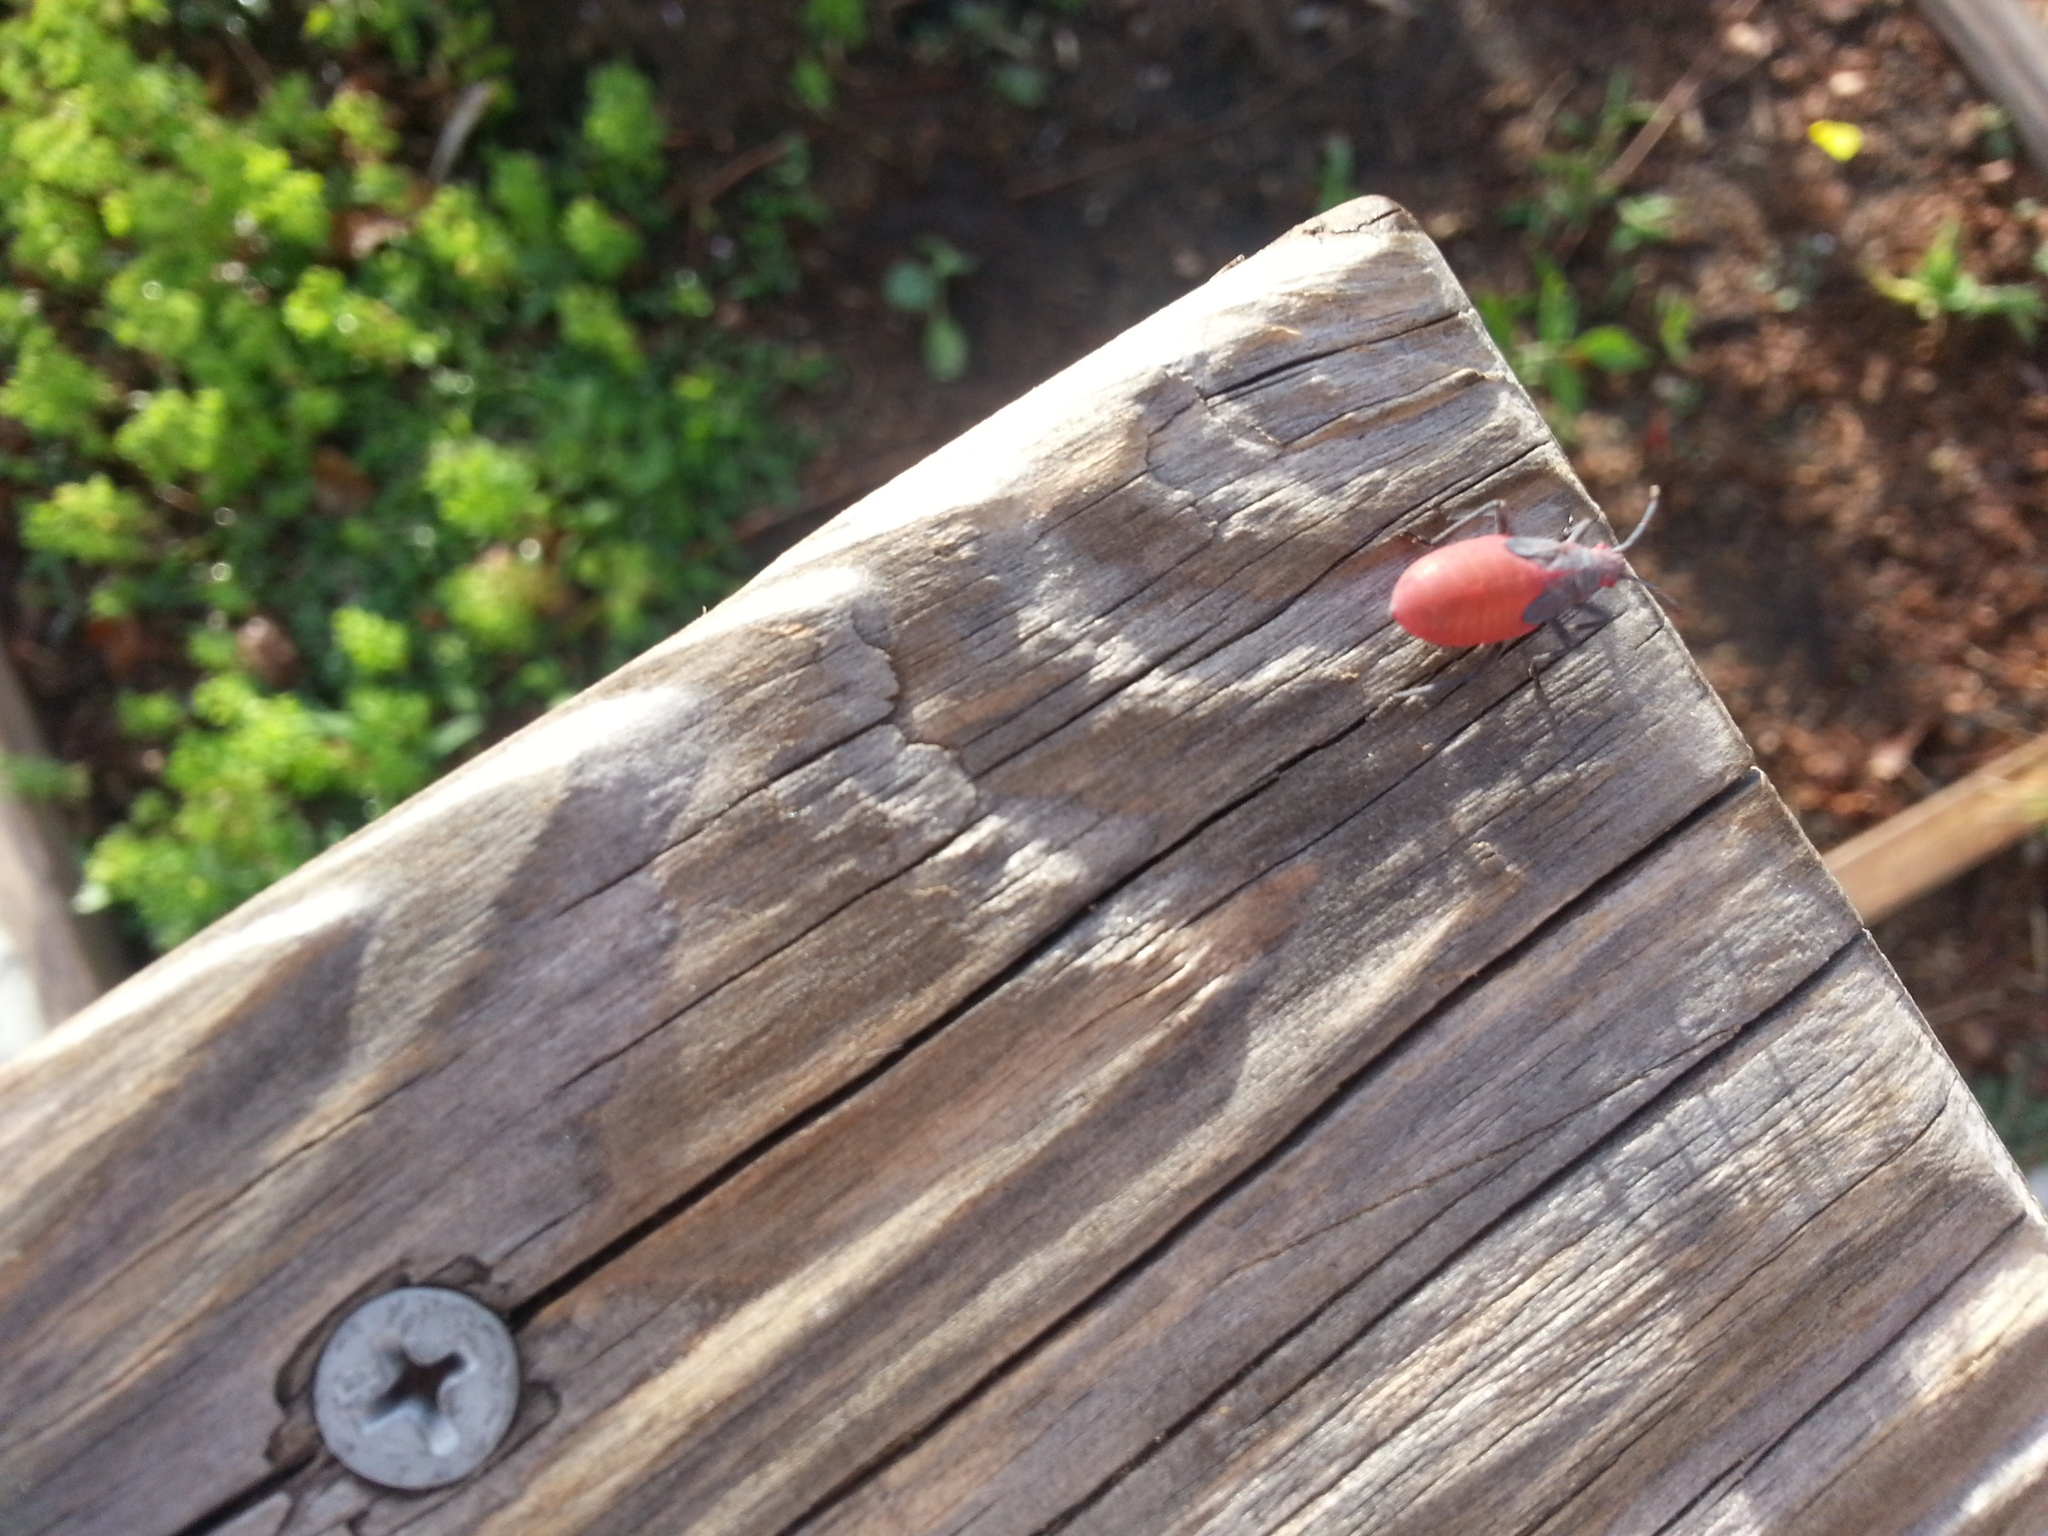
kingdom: Animalia
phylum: Arthropoda
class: Insecta
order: Hemiptera
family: Rhopalidae
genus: Jadera
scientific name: Jadera haematoloma
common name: Red-shouldered bug
